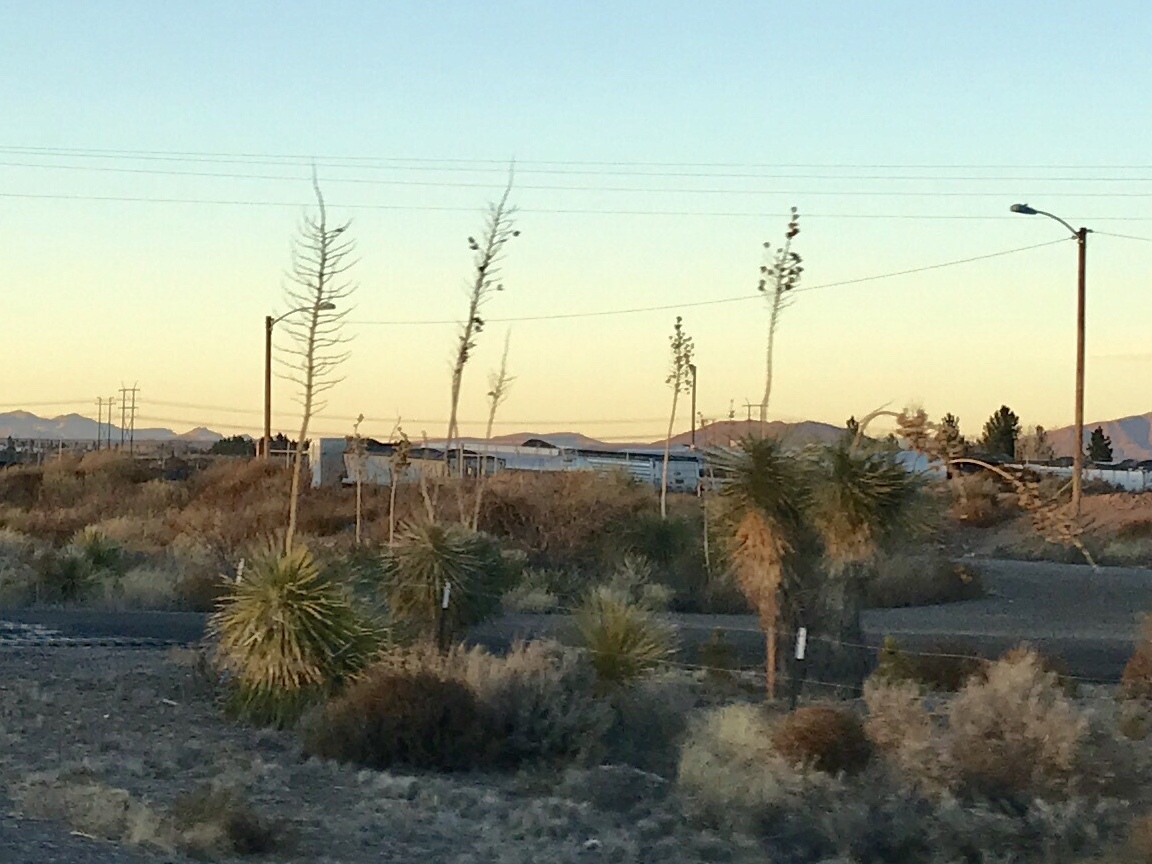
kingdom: Plantae
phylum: Tracheophyta
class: Liliopsida
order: Asparagales
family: Asparagaceae
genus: Yucca
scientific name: Yucca elata
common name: Palmella
